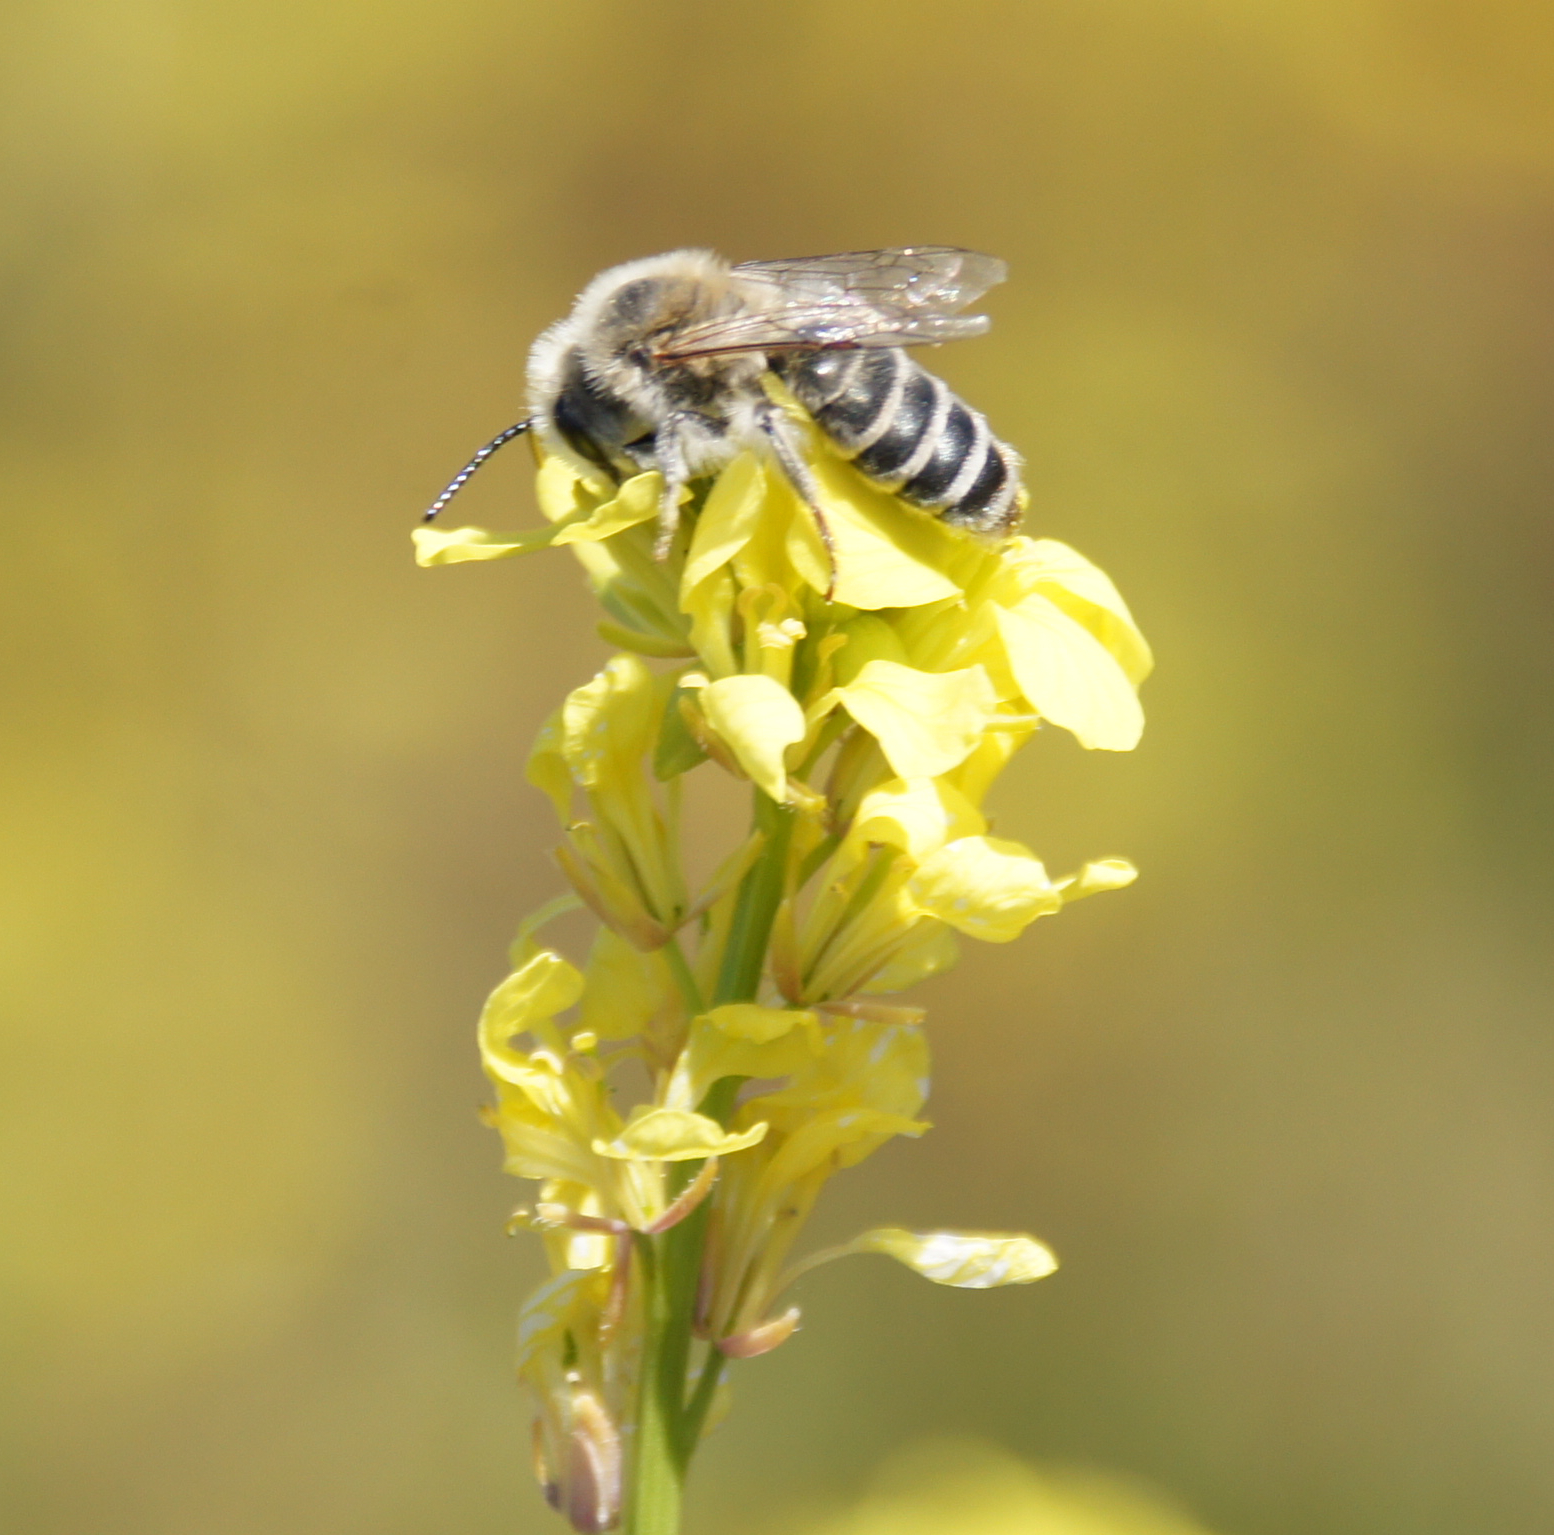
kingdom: Animalia
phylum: Arthropoda
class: Insecta
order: Hymenoptera
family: Andrenidae
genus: Andrena
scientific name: Andrena savignyi
